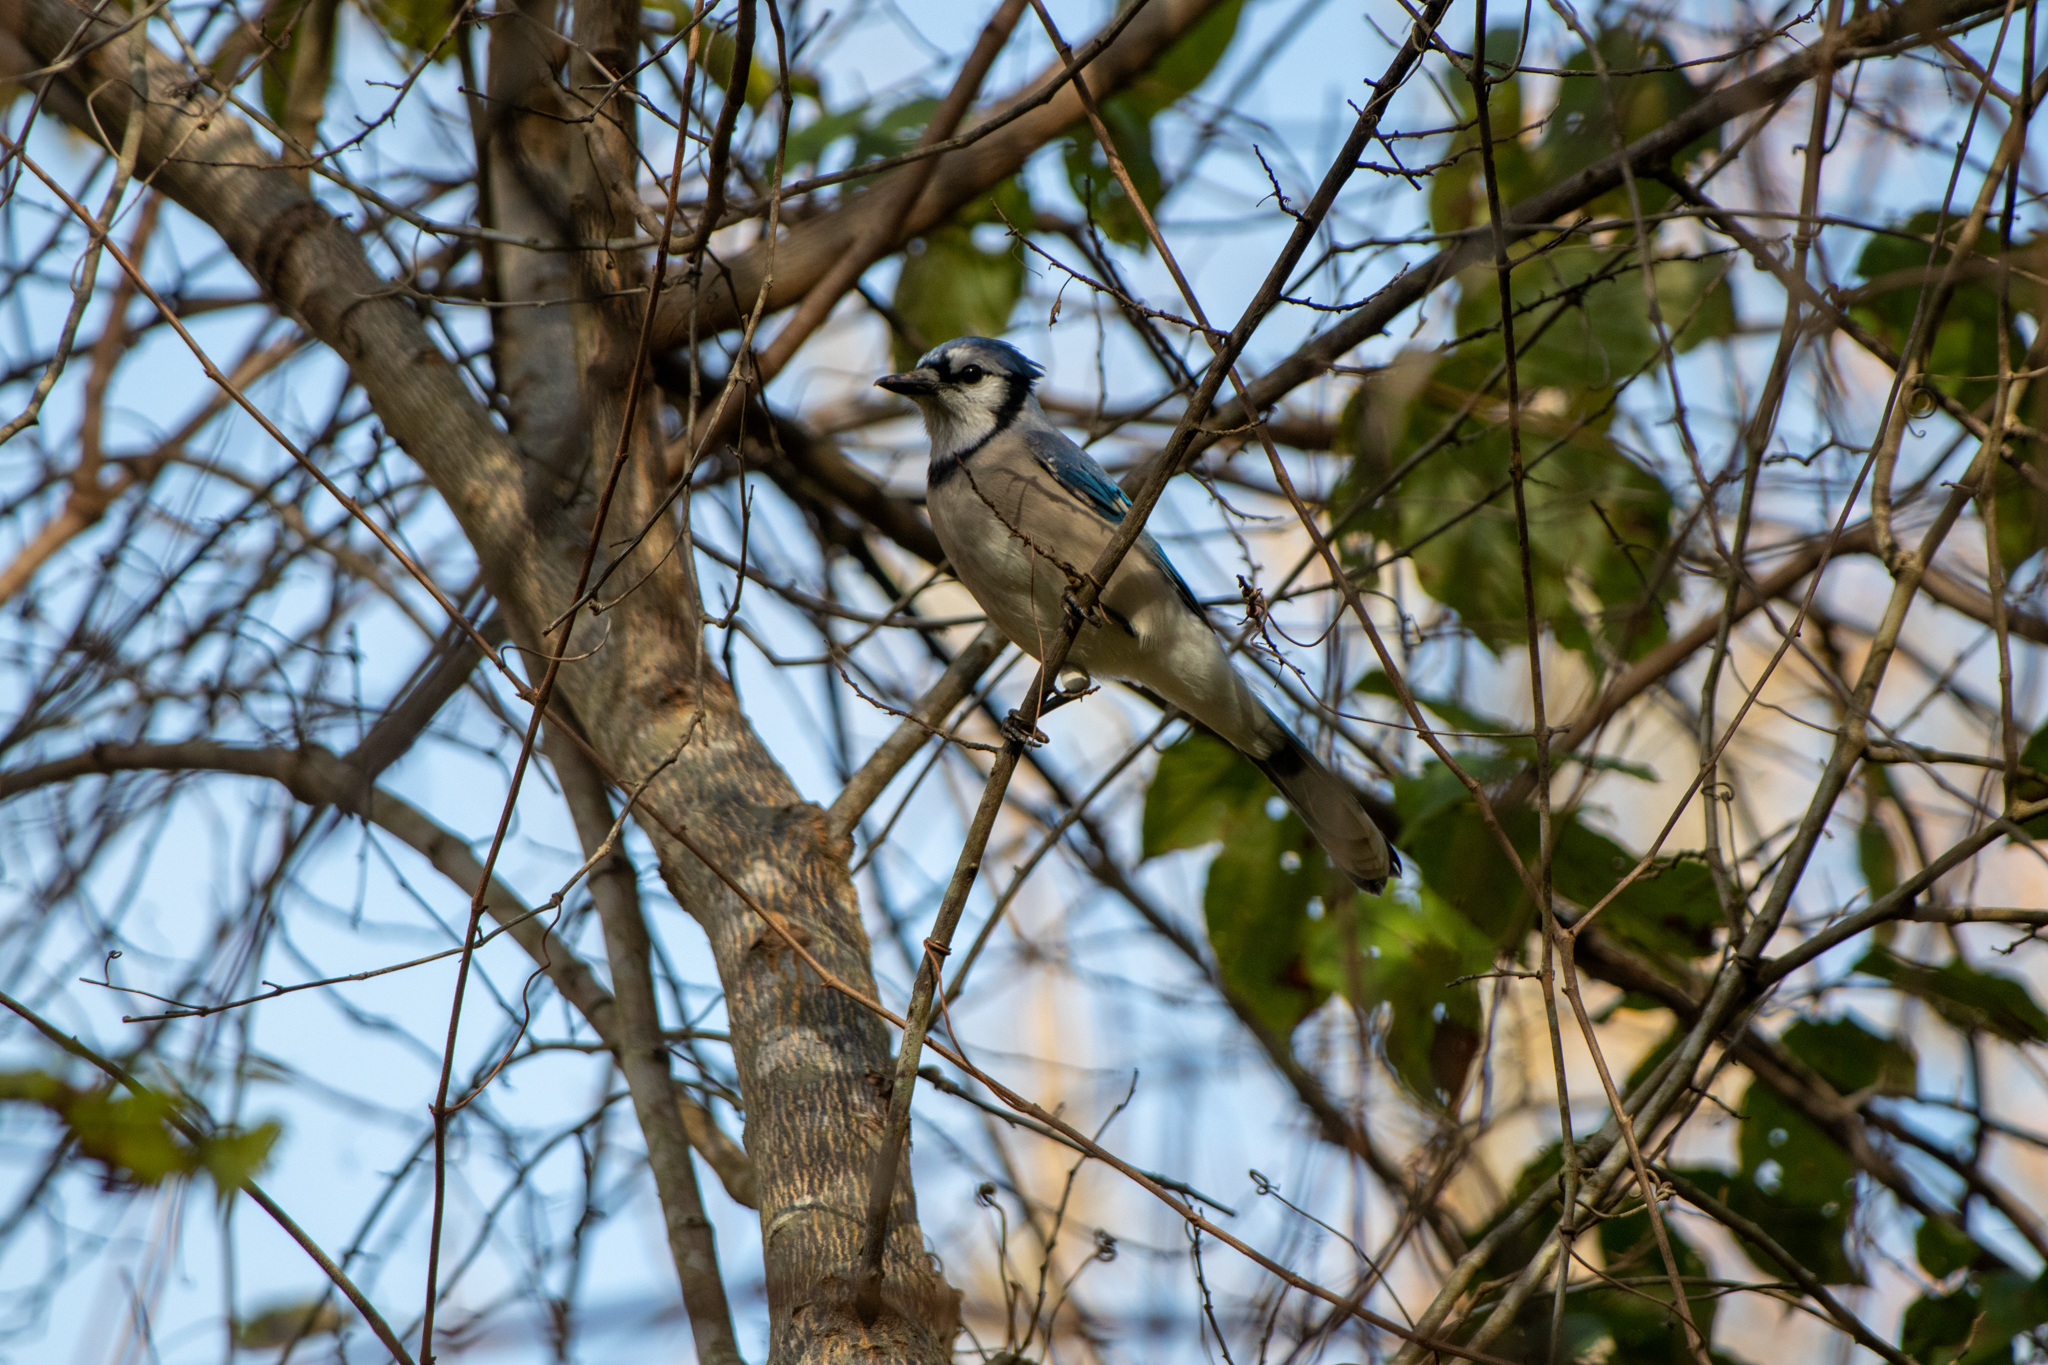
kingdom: Animalia
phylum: Chordata
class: Aves
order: Passeriformes
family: Corvidae
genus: Cyanocitta
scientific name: Cyanocitta cristata
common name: Blue jay
